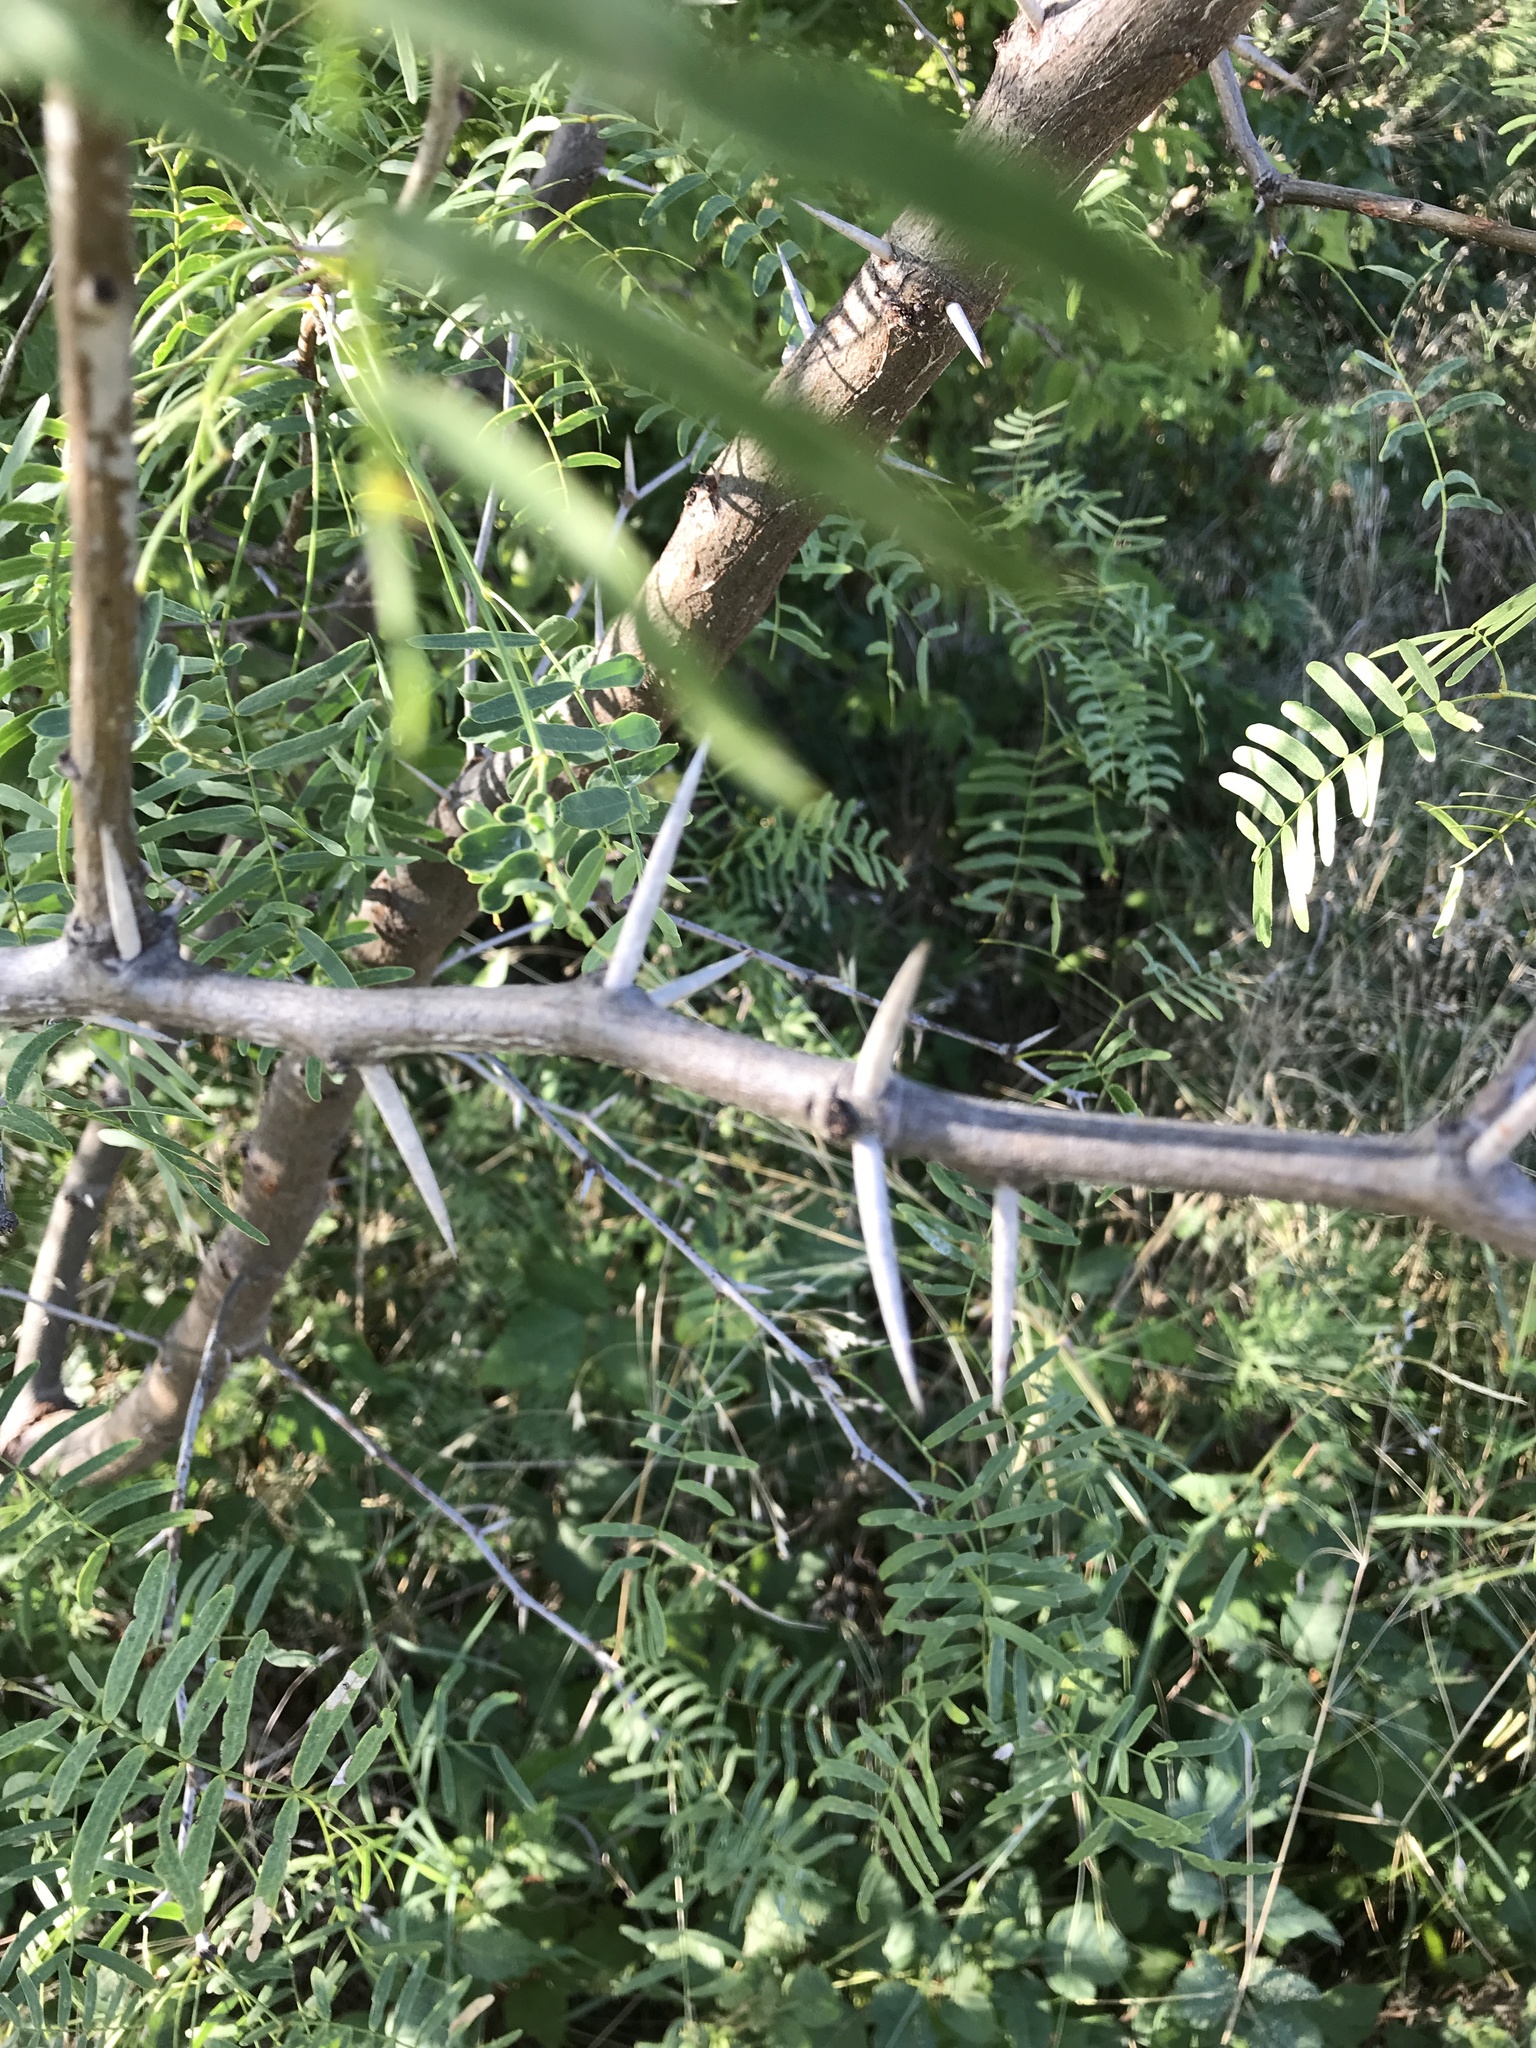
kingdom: Plantae
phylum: Tracheophyta
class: Magnoliopsida
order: Fabales
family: Fabaceae
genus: Prosopis
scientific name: Prosopis glandulosa
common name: Honey mesquite
